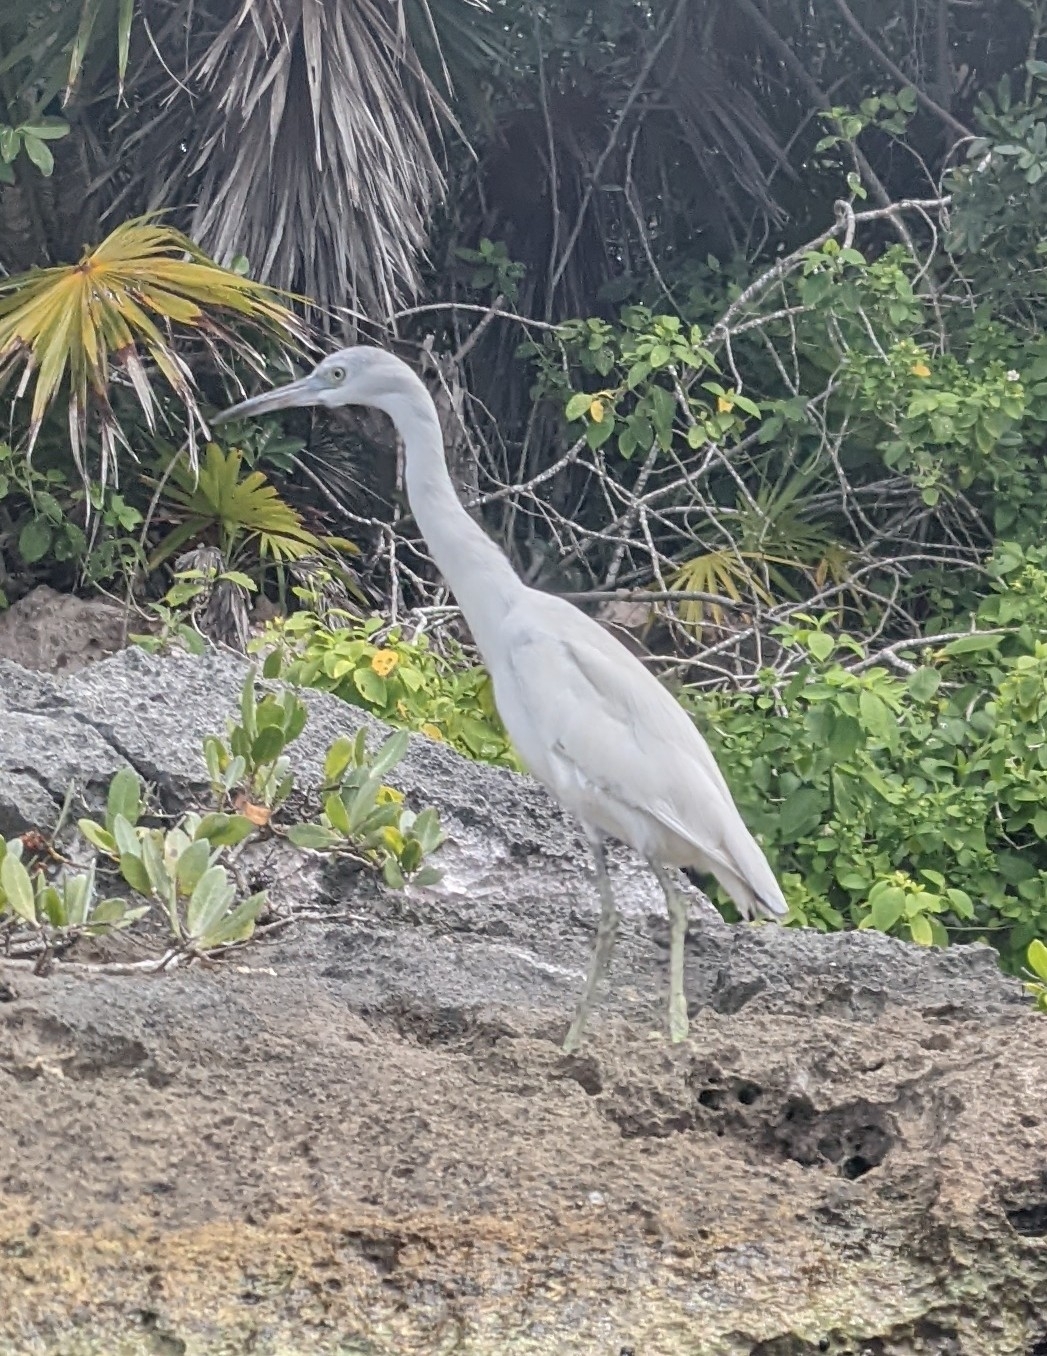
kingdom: Animalia
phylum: Chordata
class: Aves
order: Pelecaniformes
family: Ardeidae
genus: Egretta
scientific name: Egretta caerulea
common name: Little blue heron
